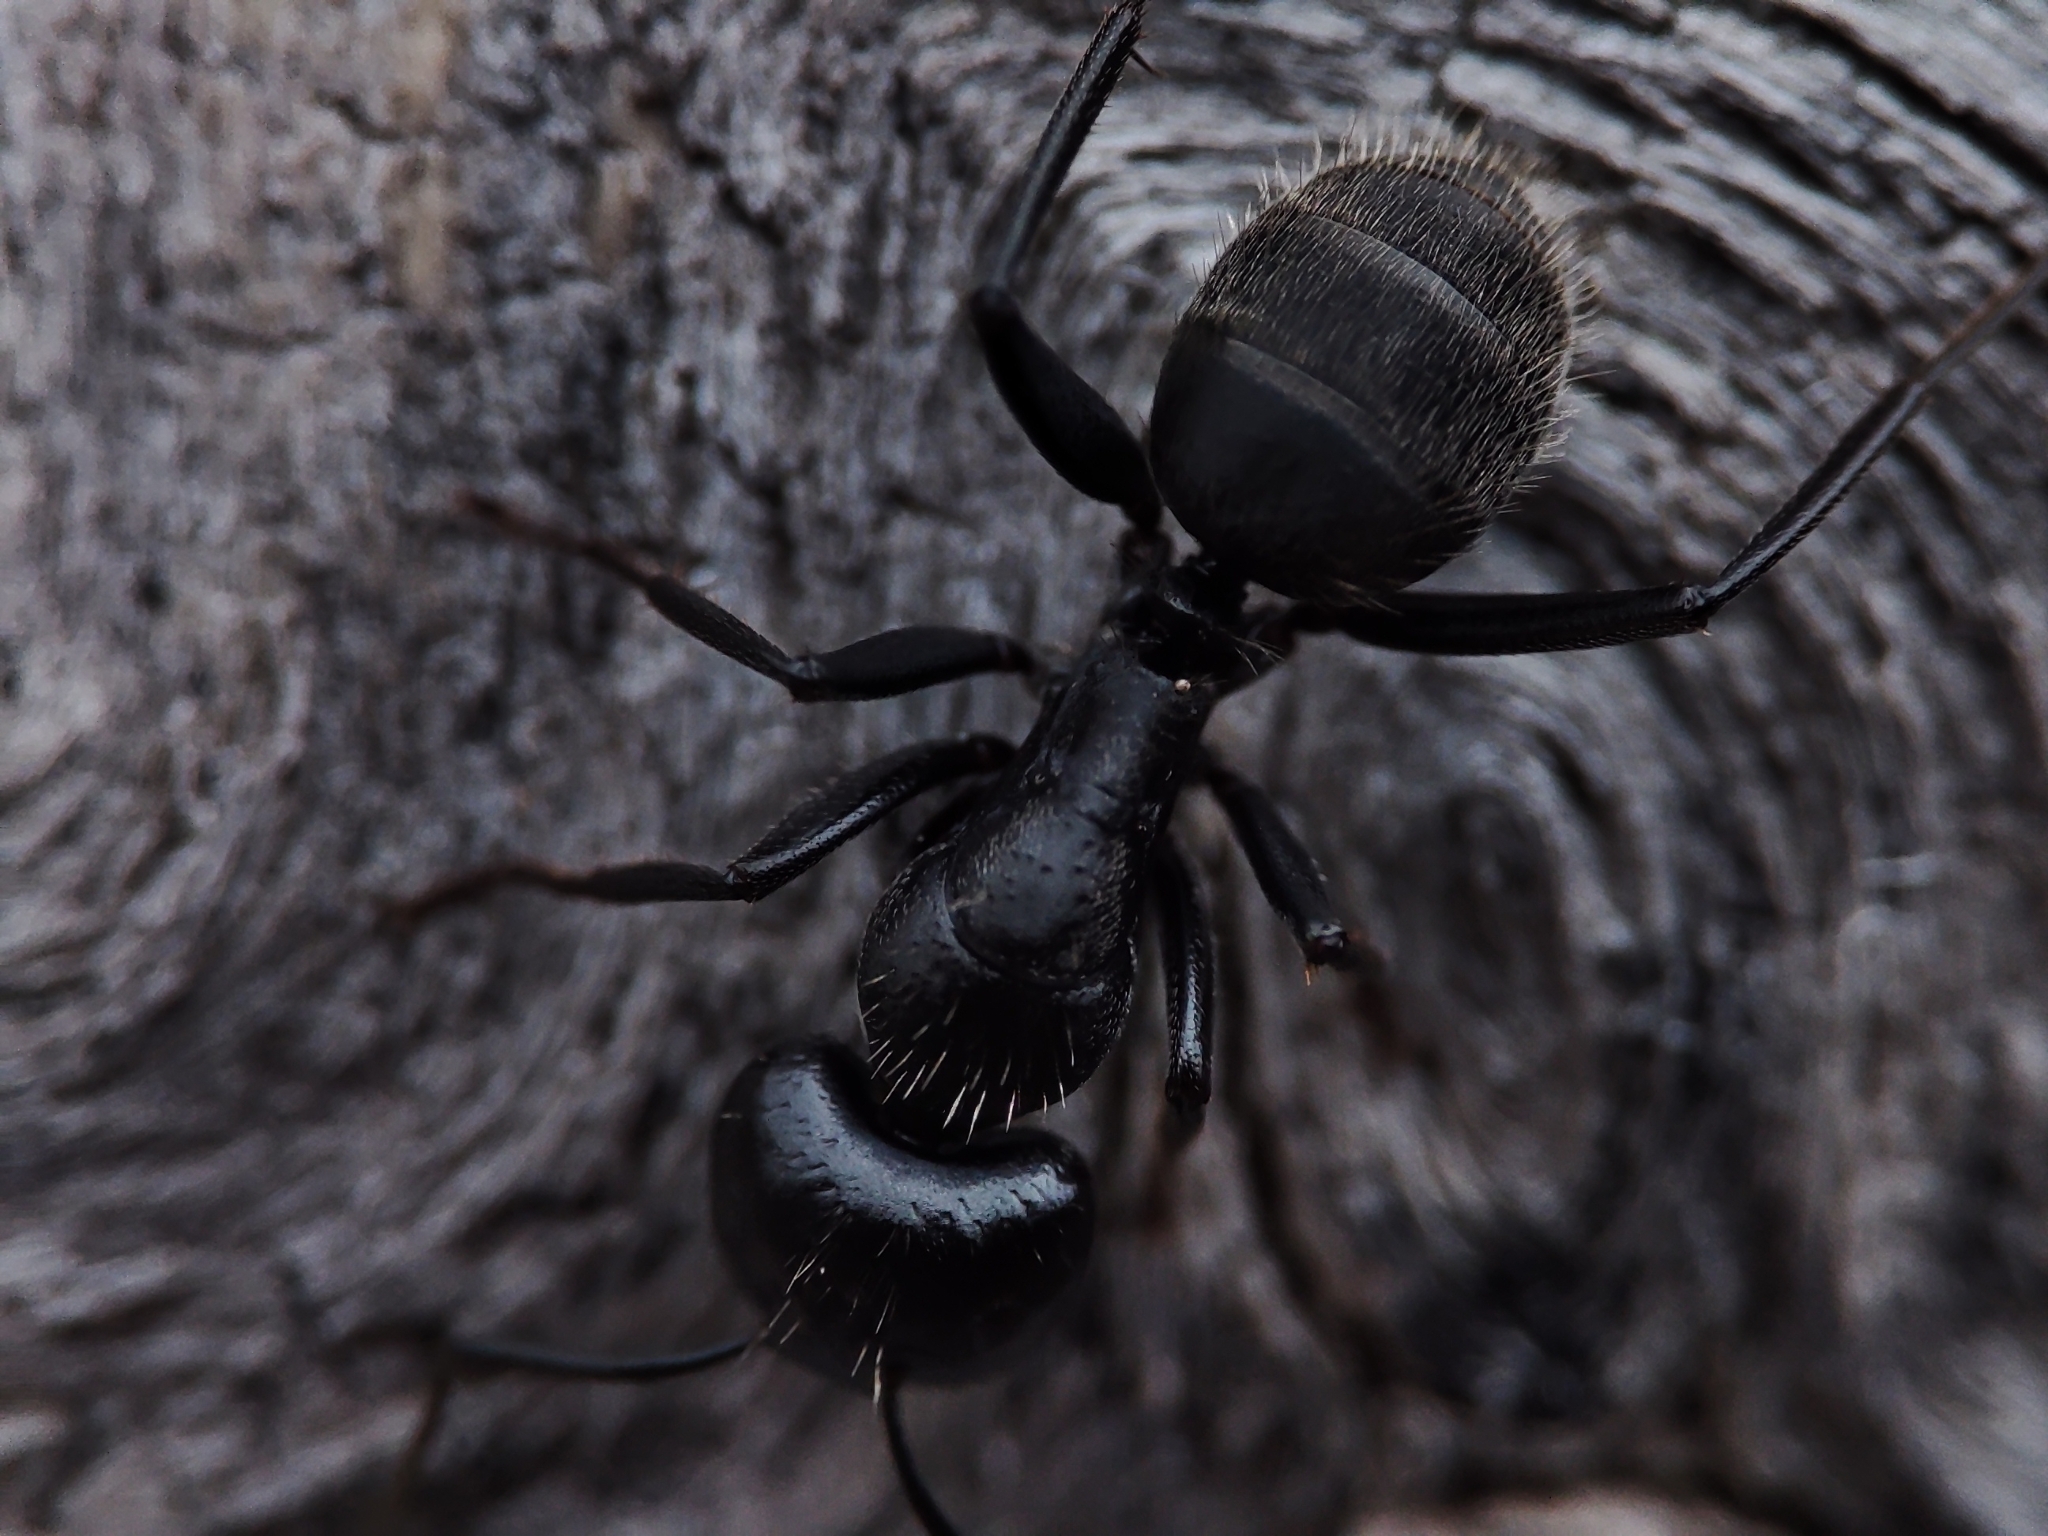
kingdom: Animalia
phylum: Arthropoda
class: Insecta
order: Hymenoptera
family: Formicidae
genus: Camponotus
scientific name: Camponotus vagus
